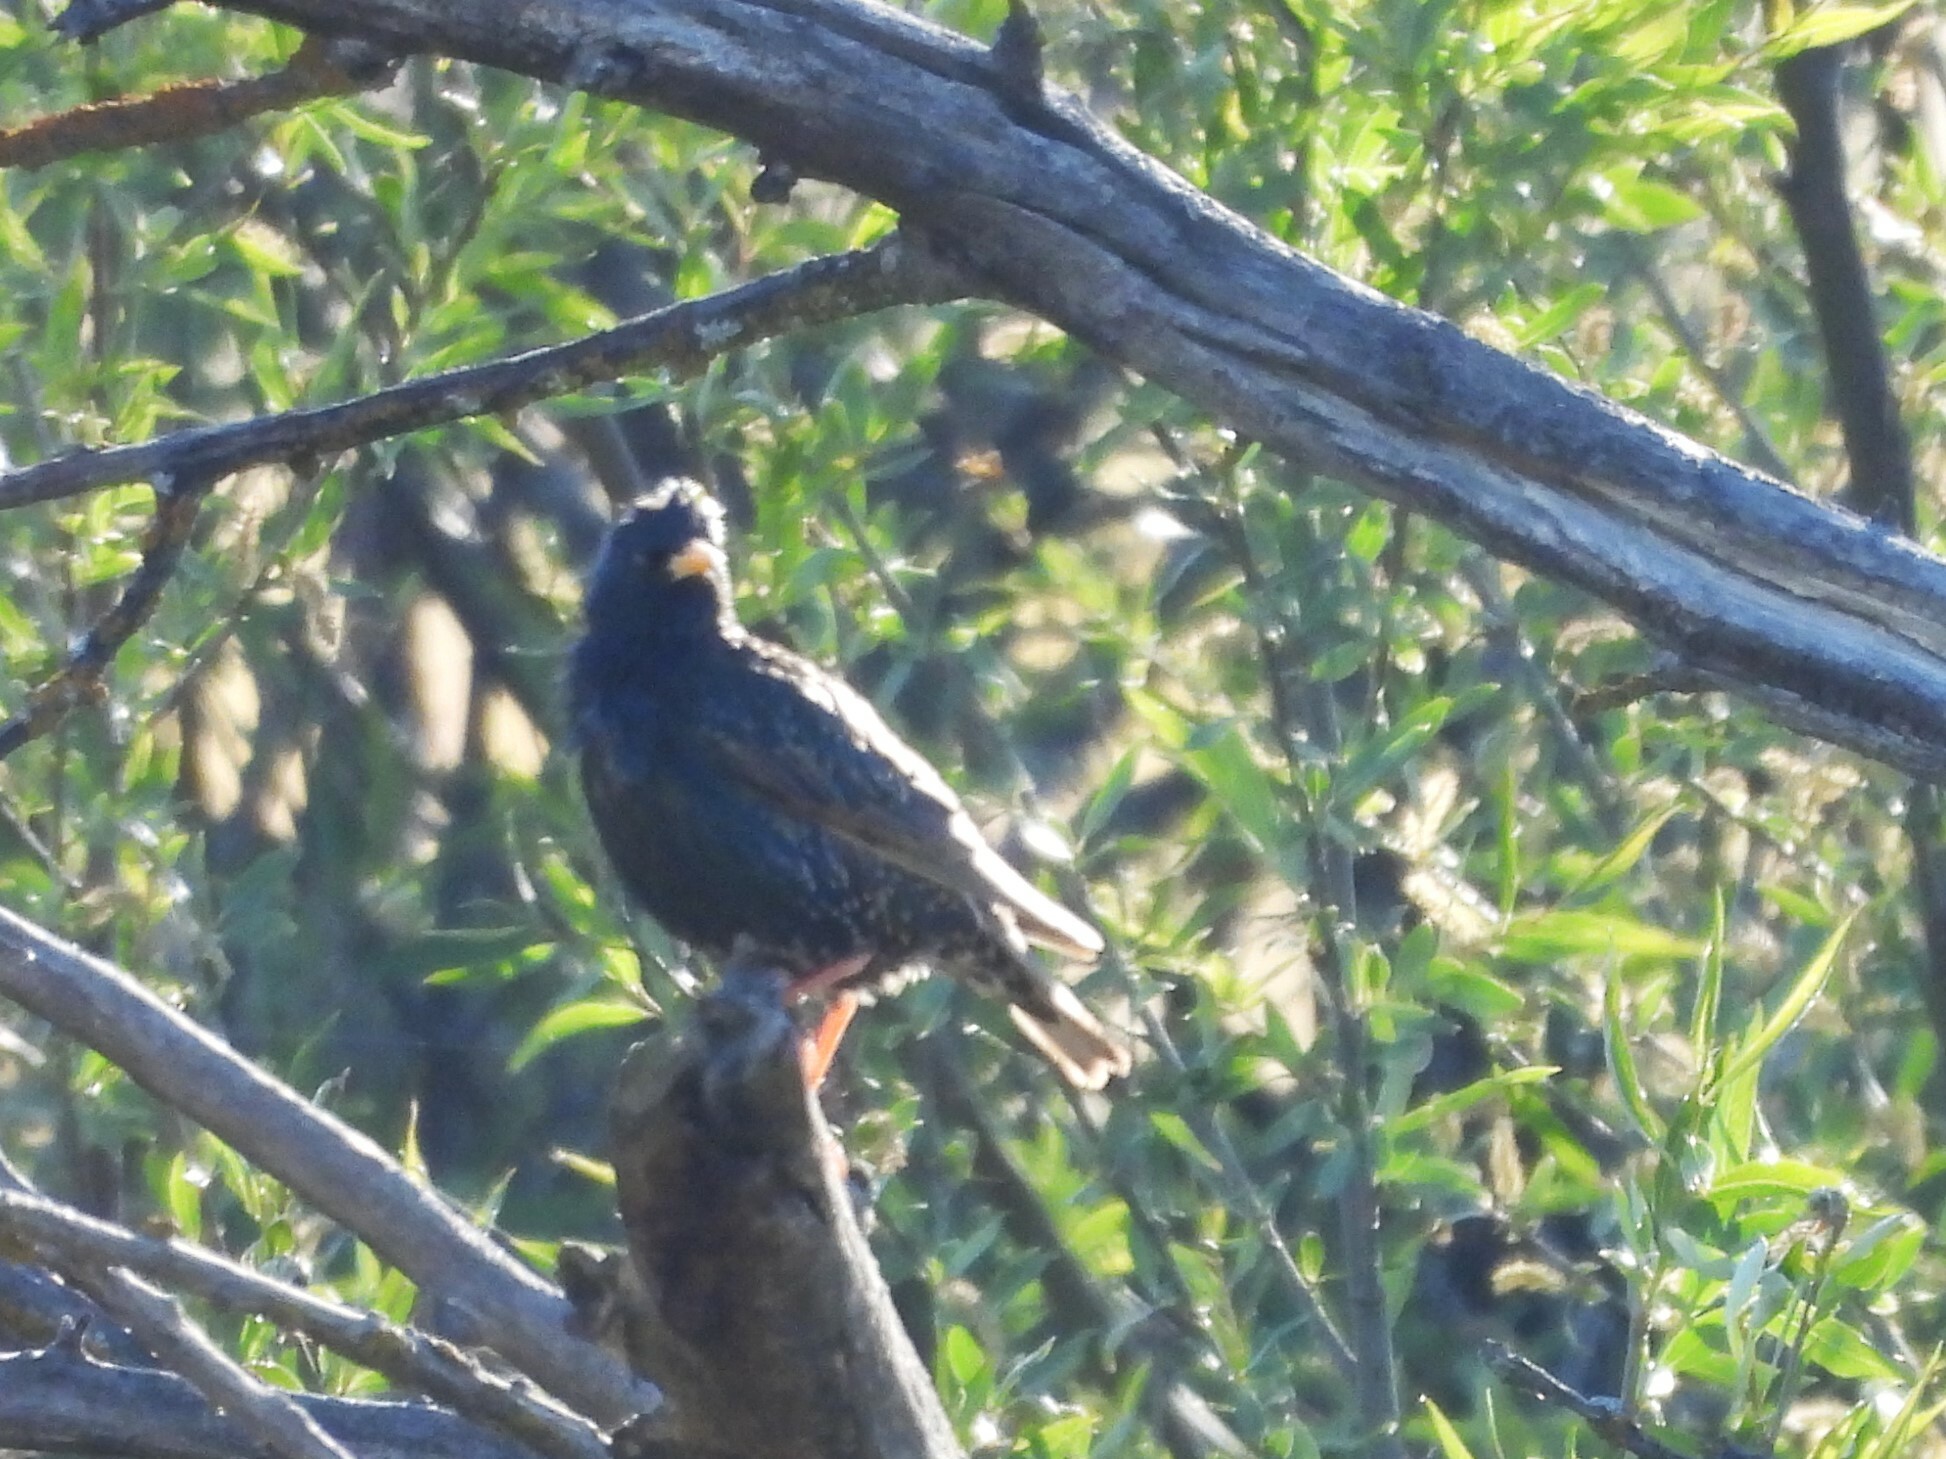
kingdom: Animalia
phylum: Chordata
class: Aves
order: Passeriformes
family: Sturnidae
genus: Sturnus
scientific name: Sturnus vulgaris
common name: Common starling
